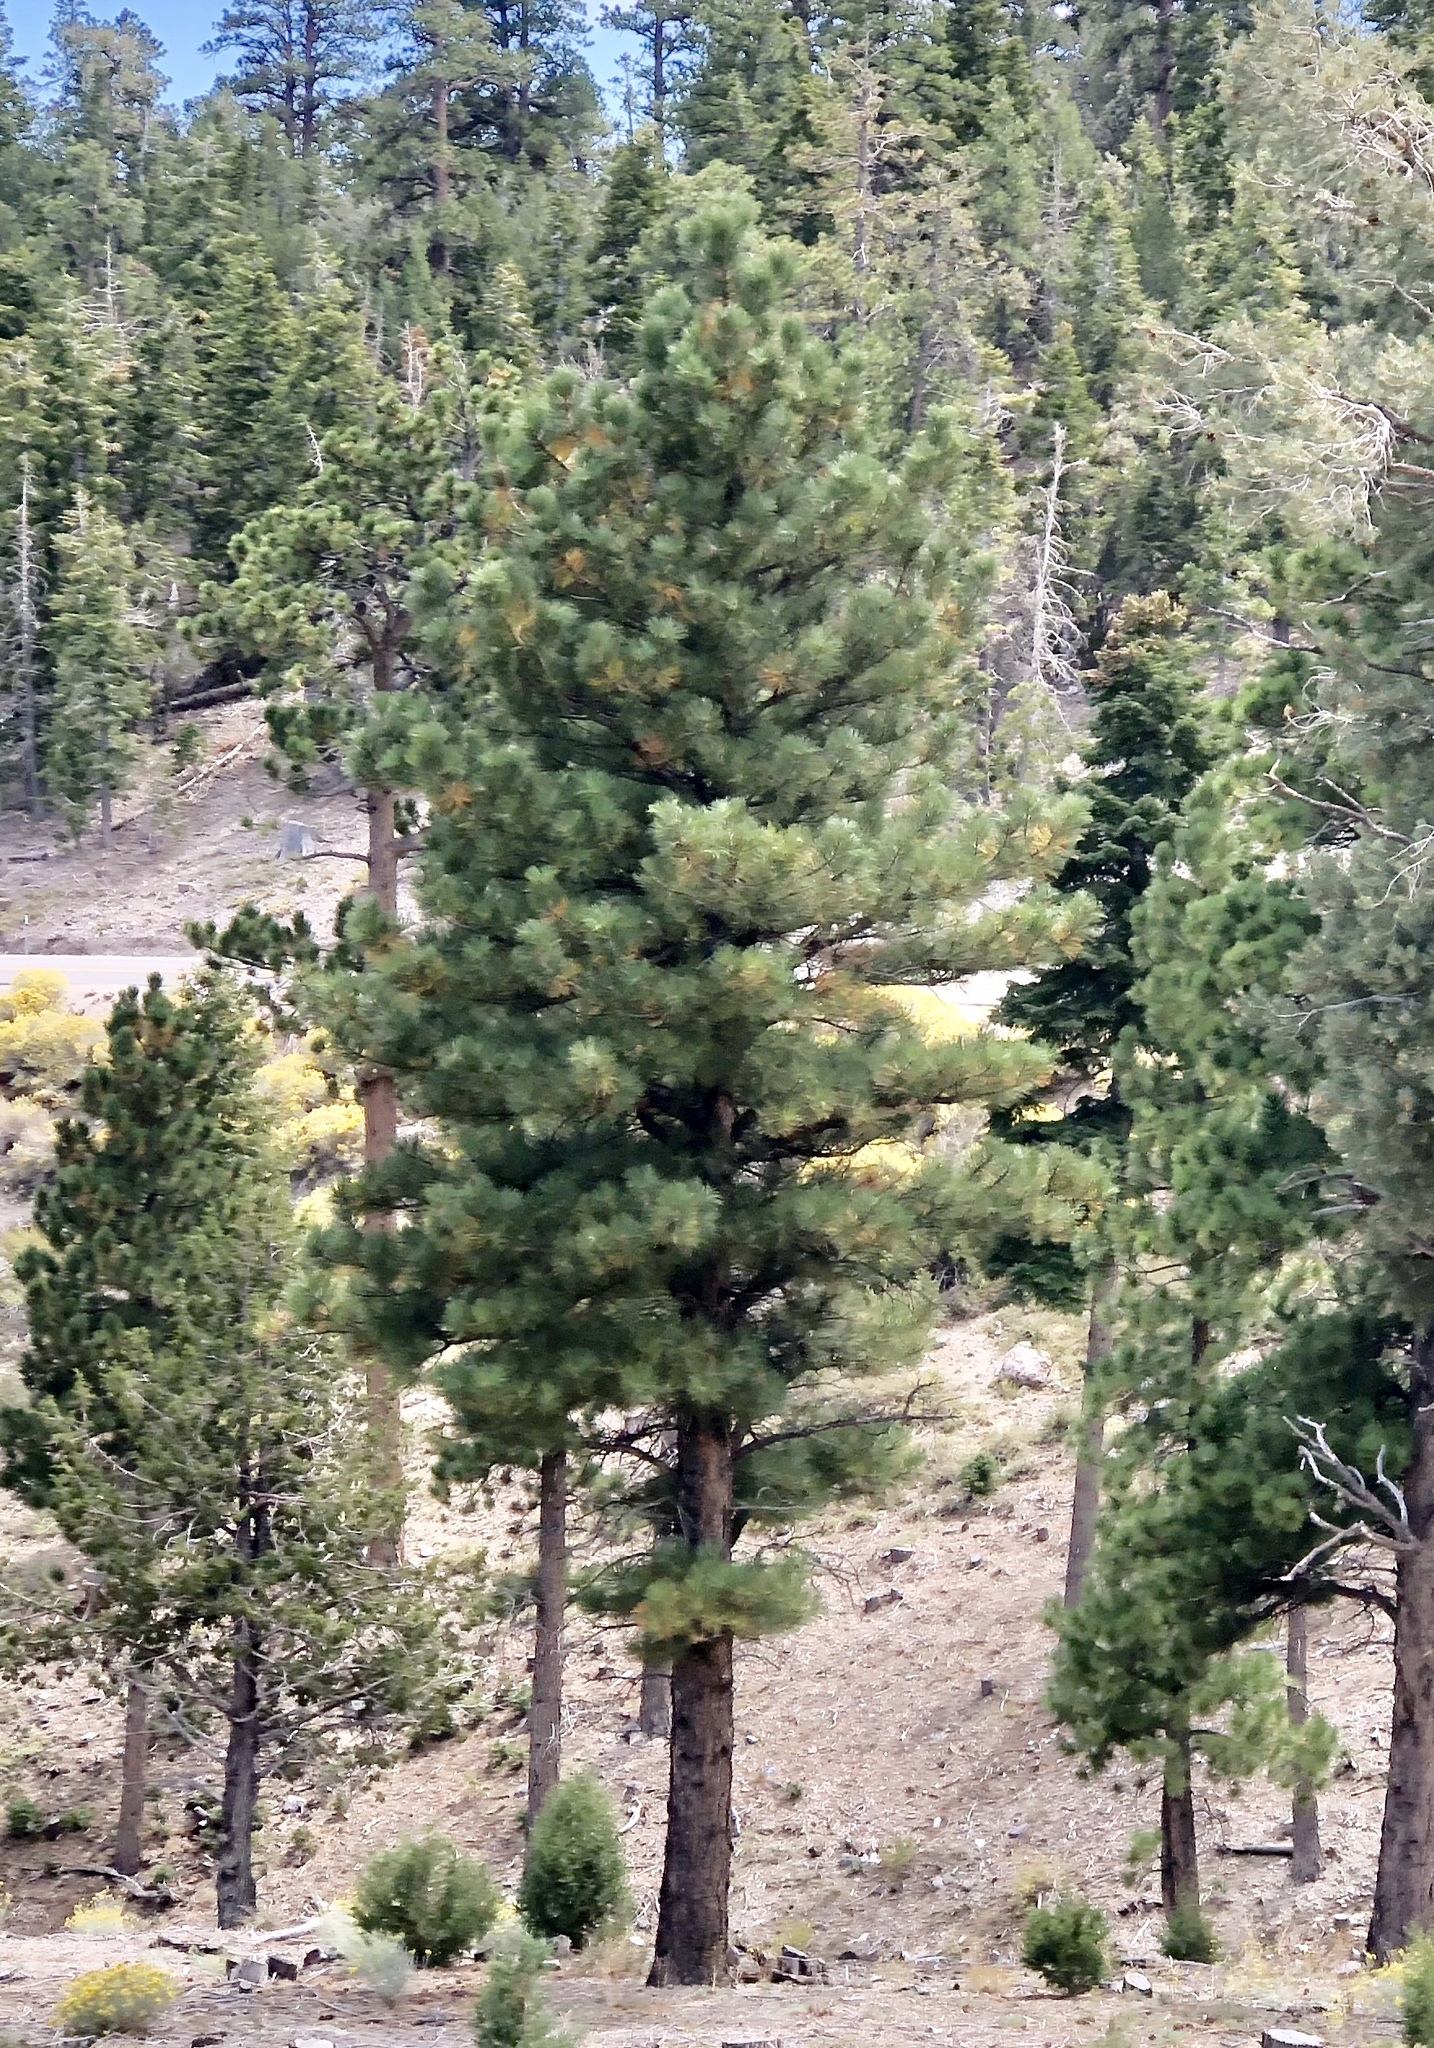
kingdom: Plantae
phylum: Tracheophyta
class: Pinopsida
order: Pinales
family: Pinaceae
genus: Pinus
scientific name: Pinus ponderosa
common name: Western yellow-pine
